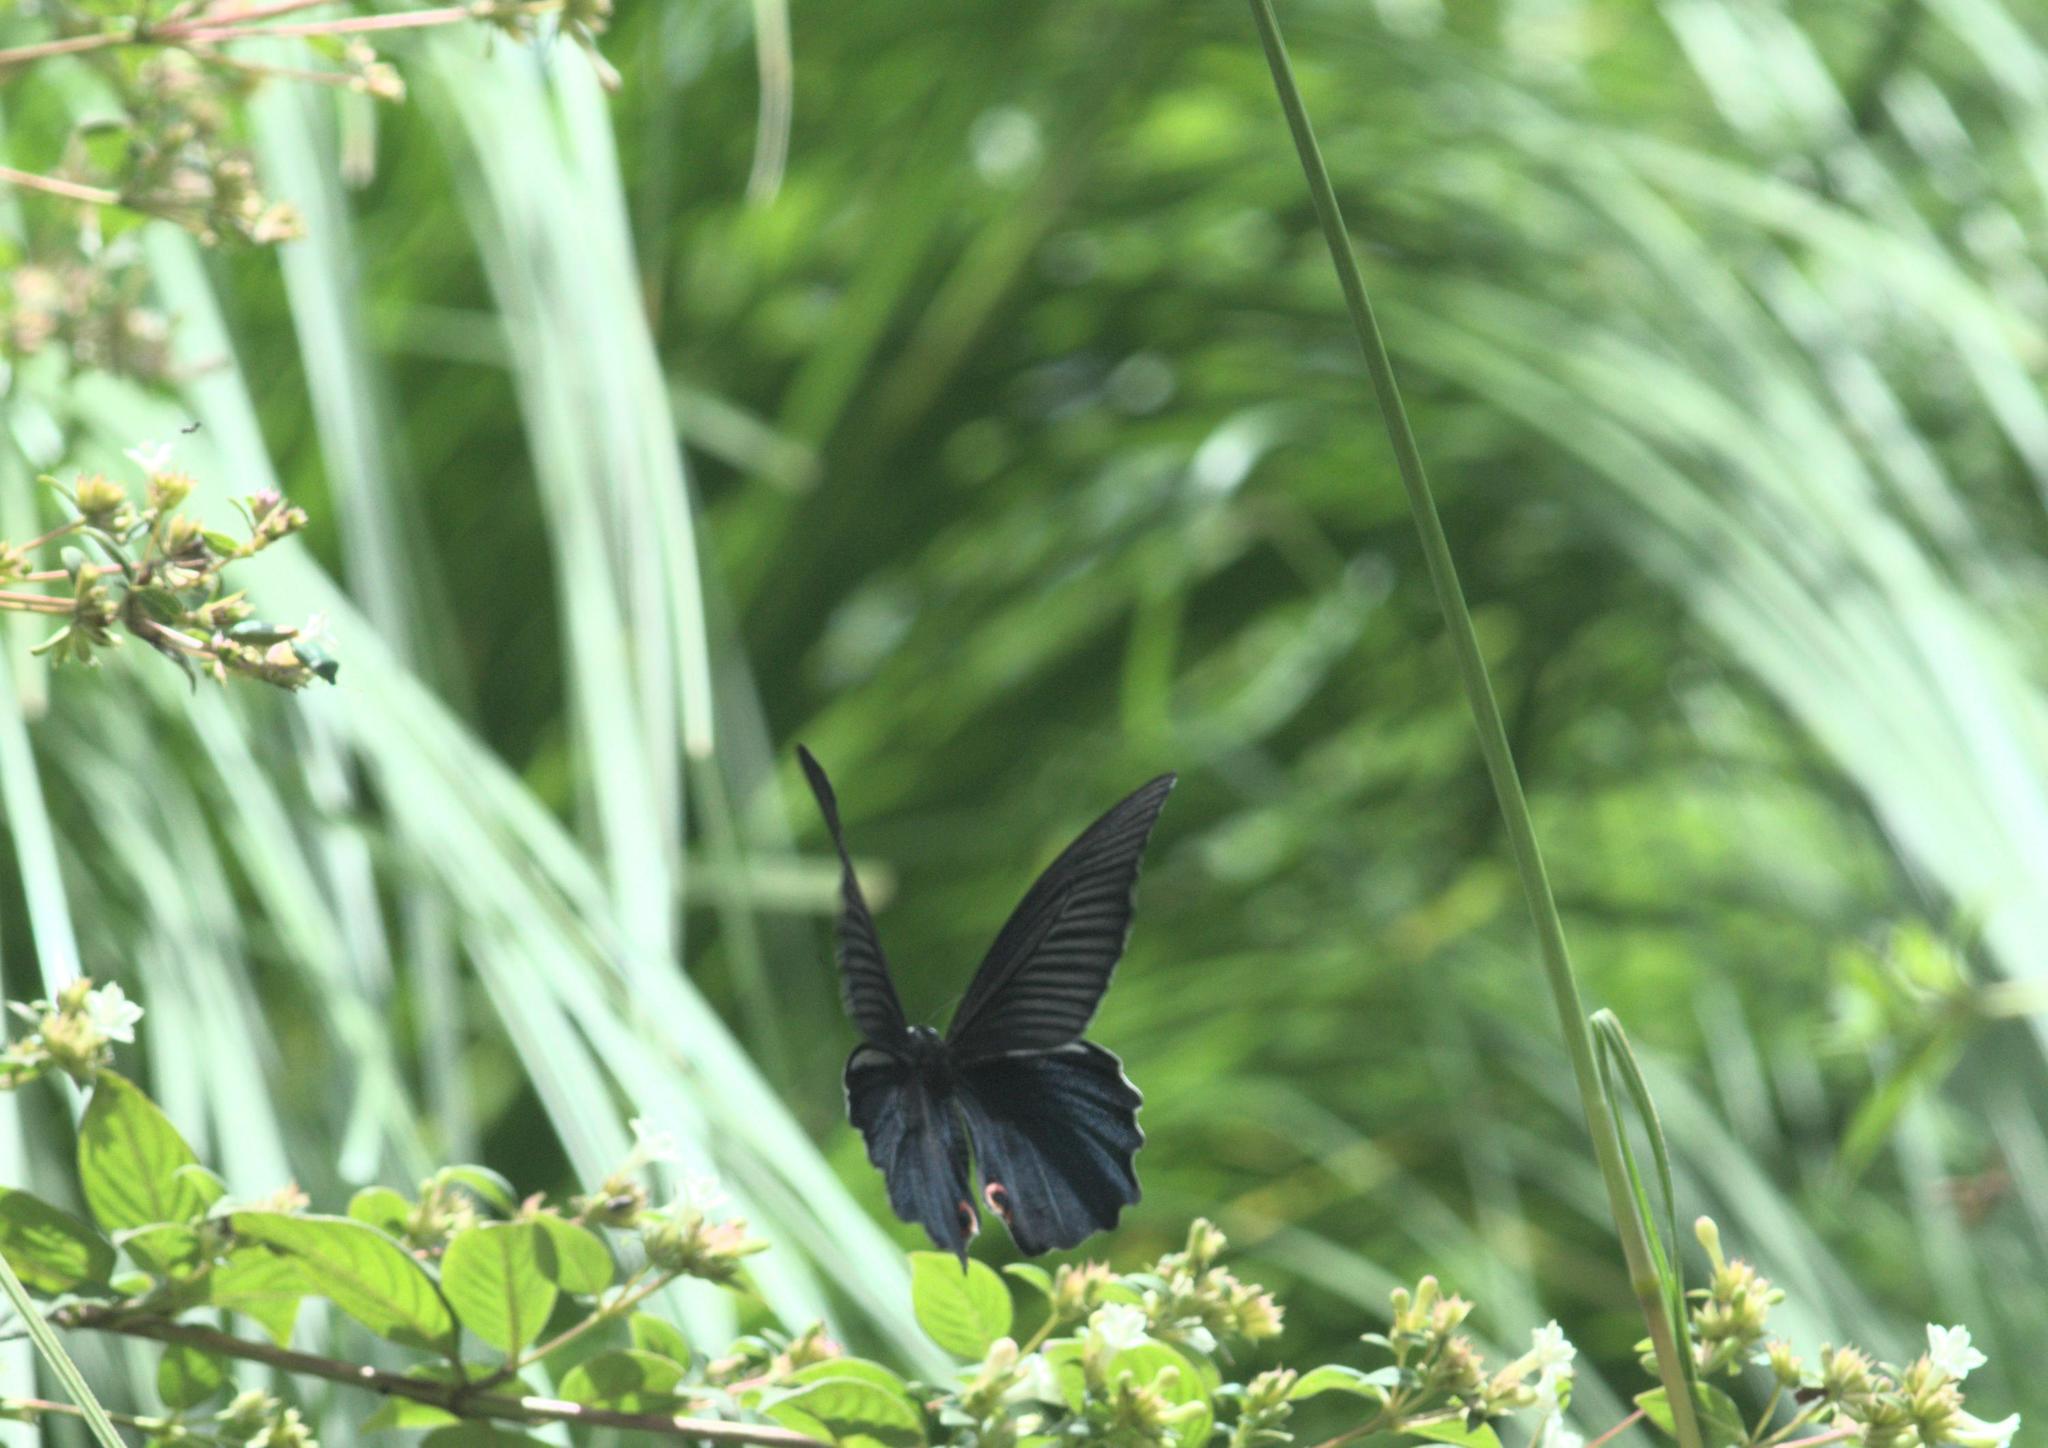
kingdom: Animalia
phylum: Arthropoda
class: Insecta
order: Lepidoptera
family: Papilionidae
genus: Papilio
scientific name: Papilio protenor
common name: Spangle
